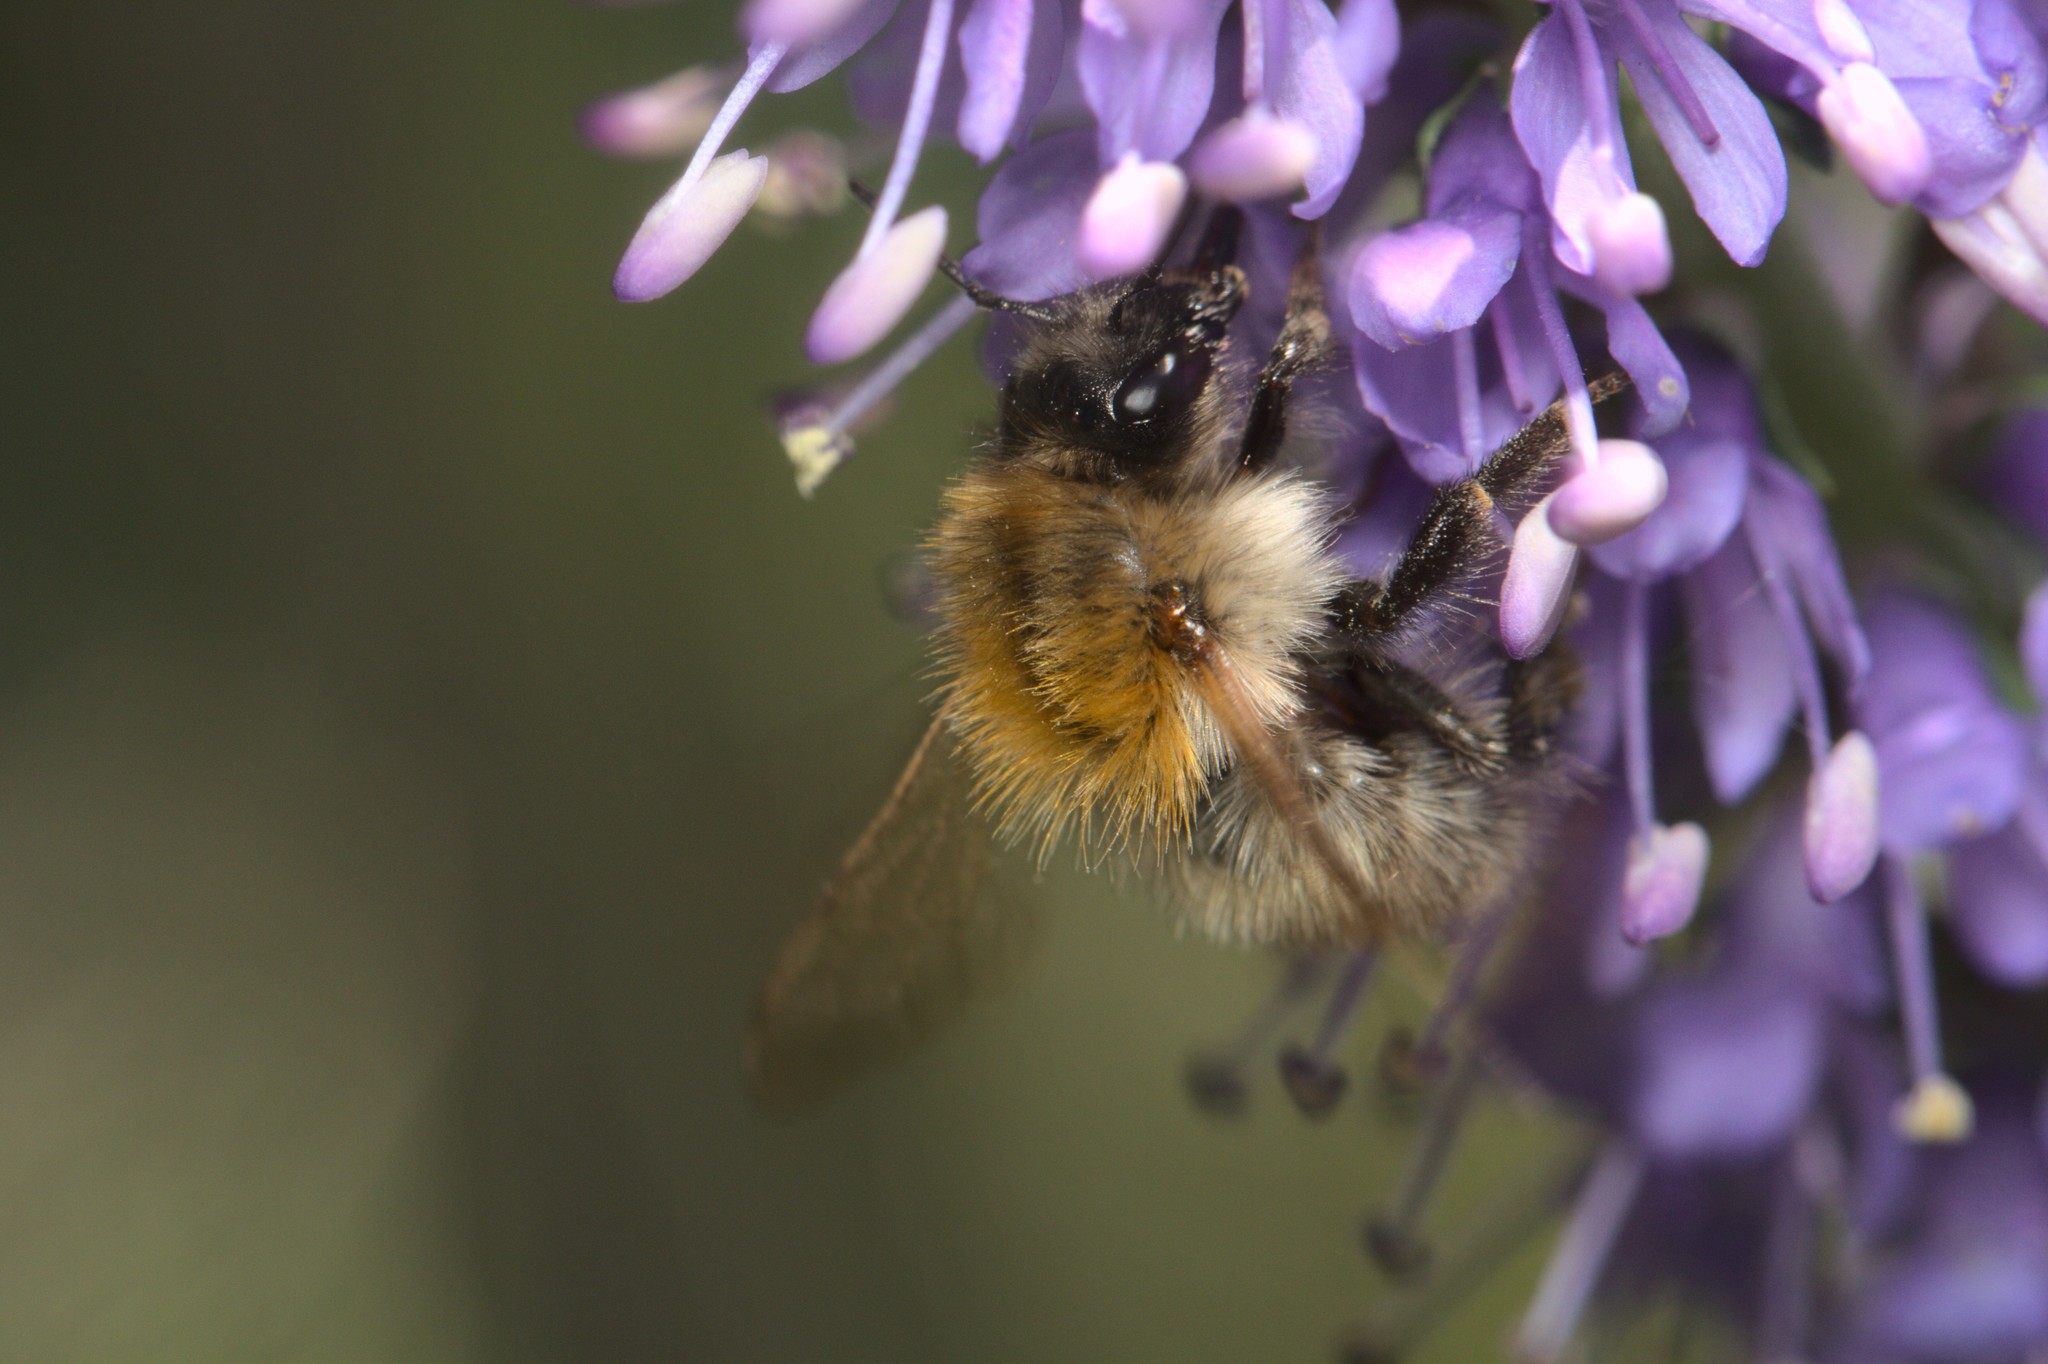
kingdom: Animalia
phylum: Arthropoda
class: Insecta
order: Hymenoptera
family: Apidae
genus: Bombus
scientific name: Bombus pascuorum
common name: Common carder bee
